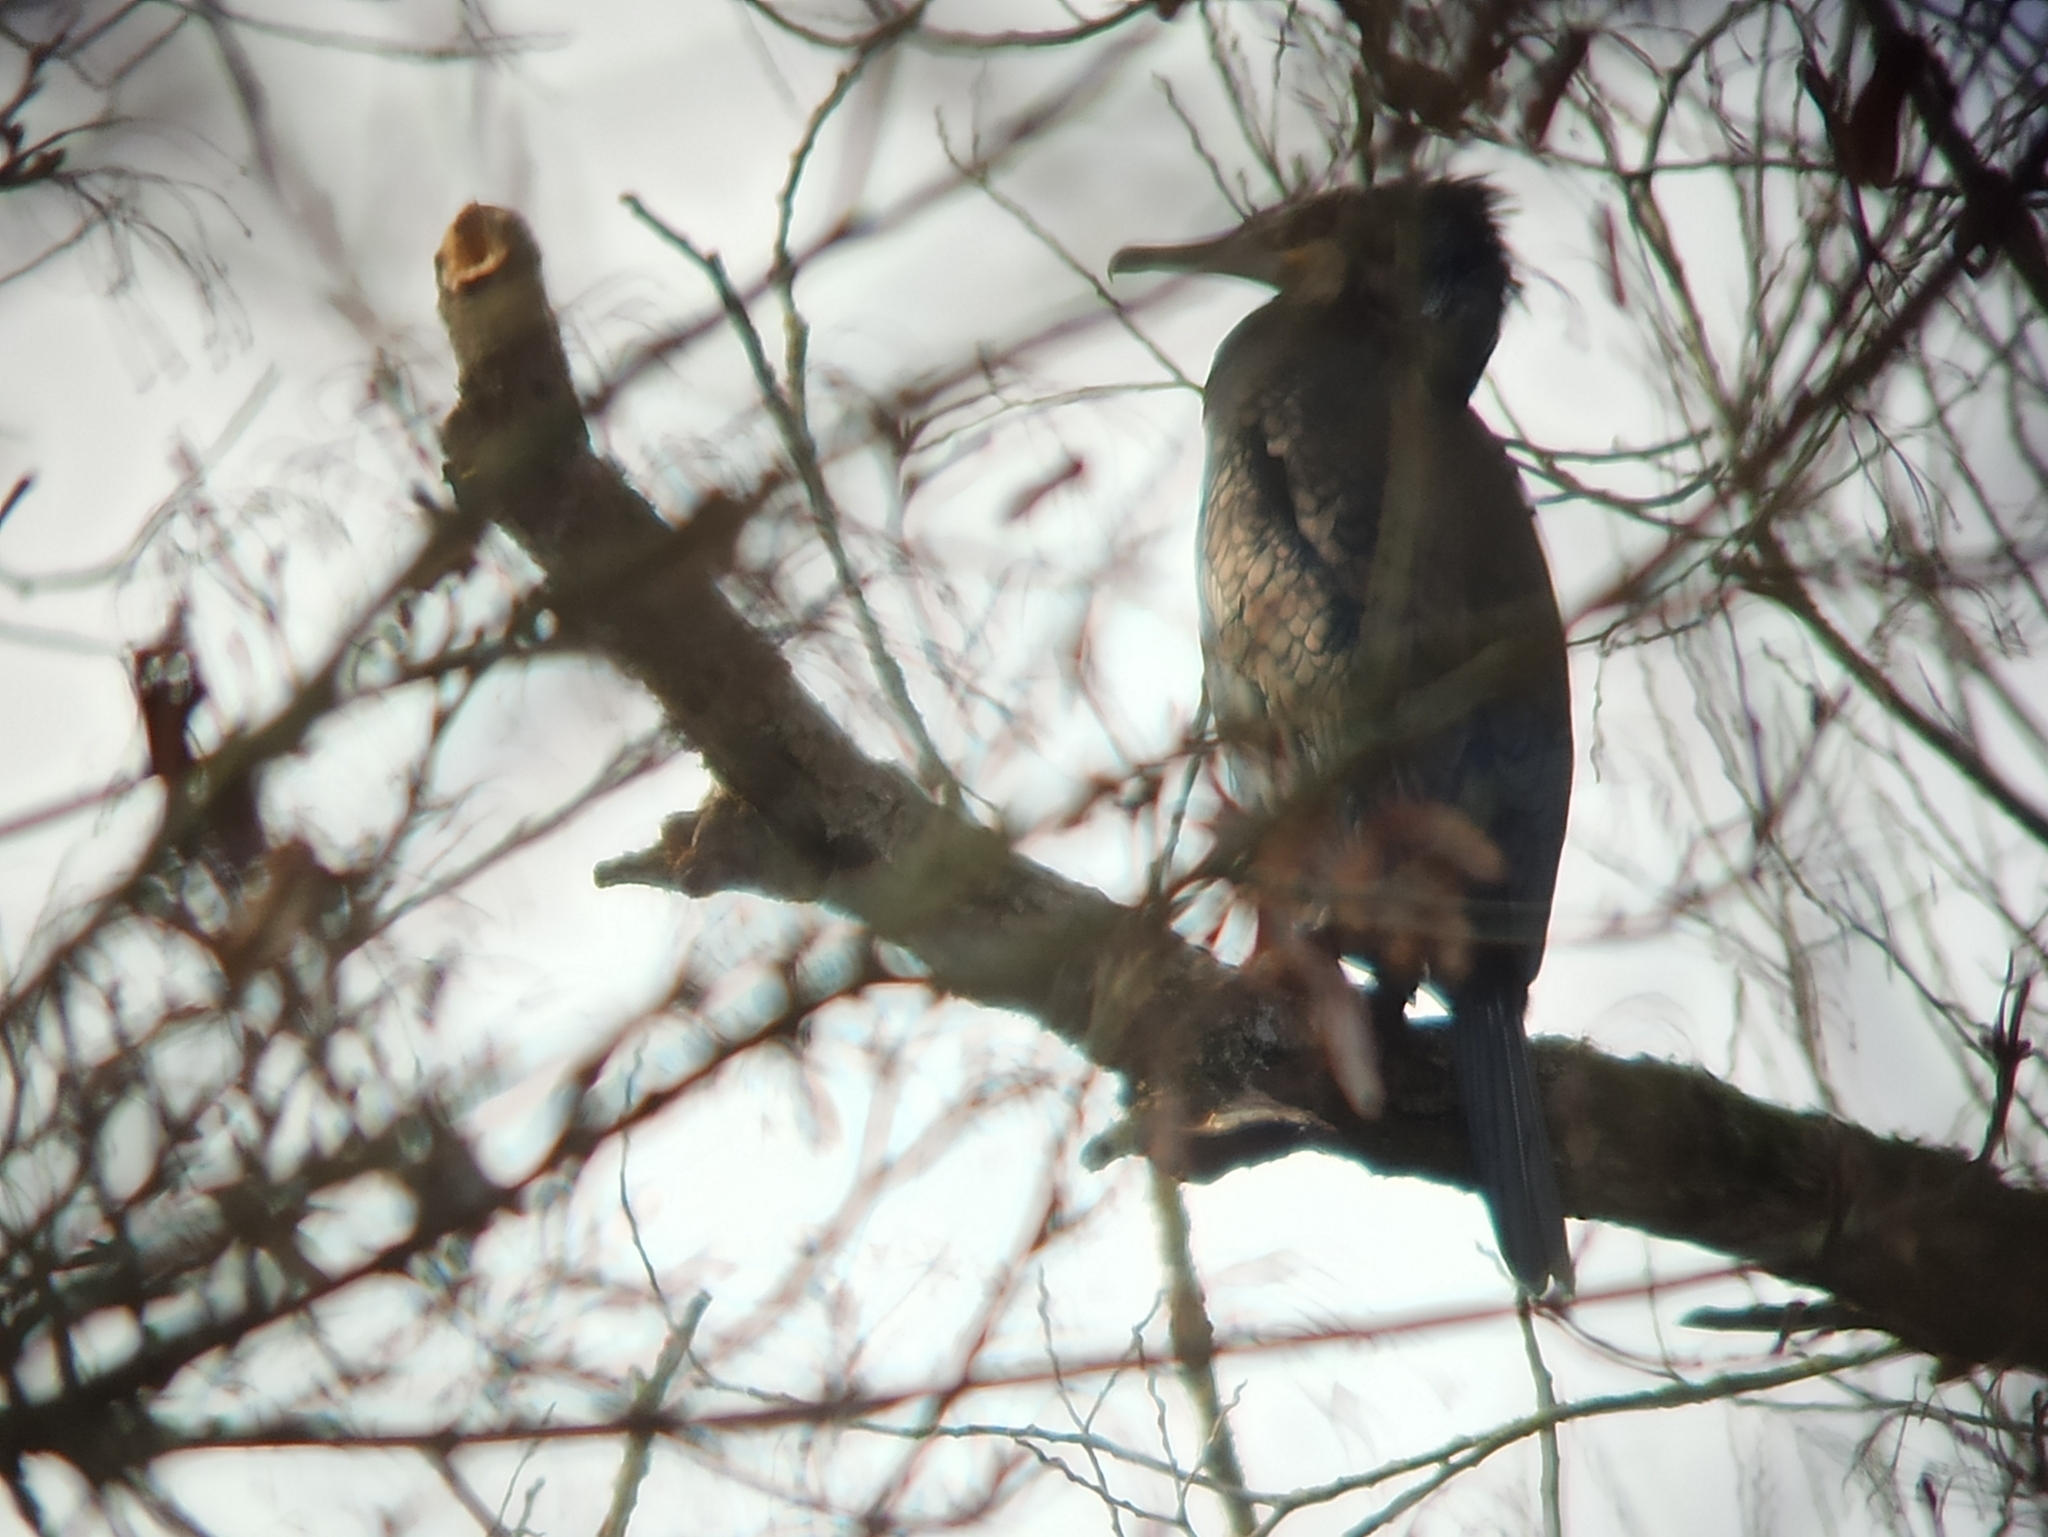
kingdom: Animalia
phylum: Chordata
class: Aves
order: Suliformes
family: Phalacrocoracidae
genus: Phalacrocorax
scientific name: Phalacrocorax carbo
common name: Great cormorant
